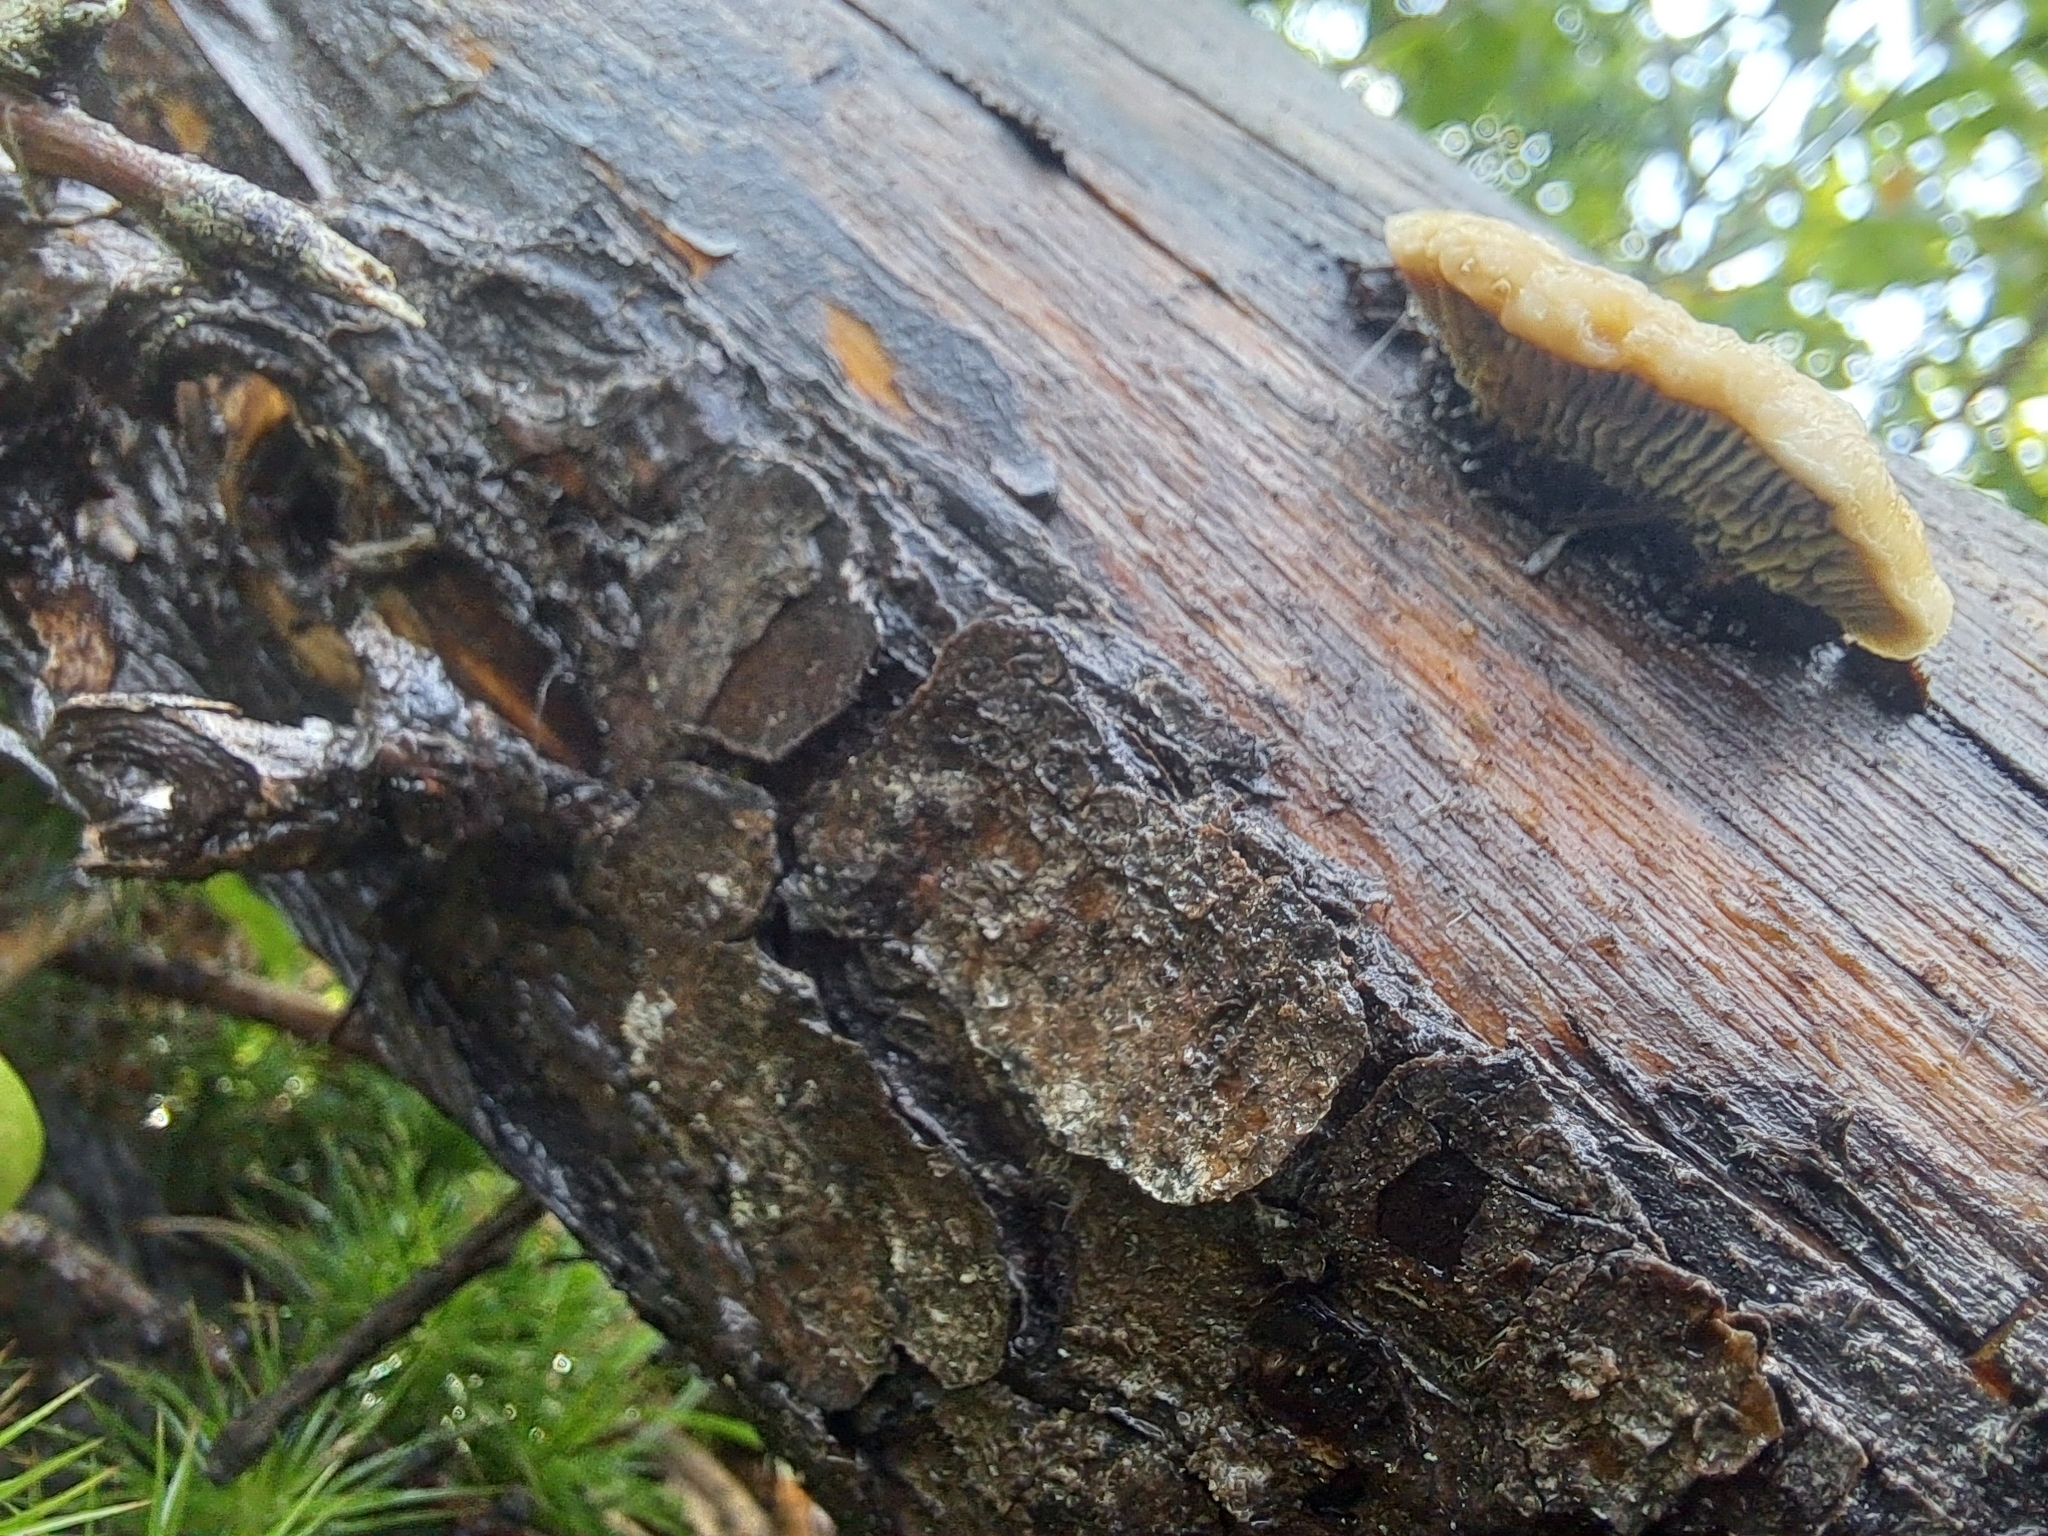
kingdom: Fungi
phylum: Basidiomycota
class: Agaricomycetes
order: Gloeophyllales
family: Gloeophyllaceae
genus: Gloeophyllum
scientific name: Gloeophyllum sepiarium
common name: Conifer mazegill
